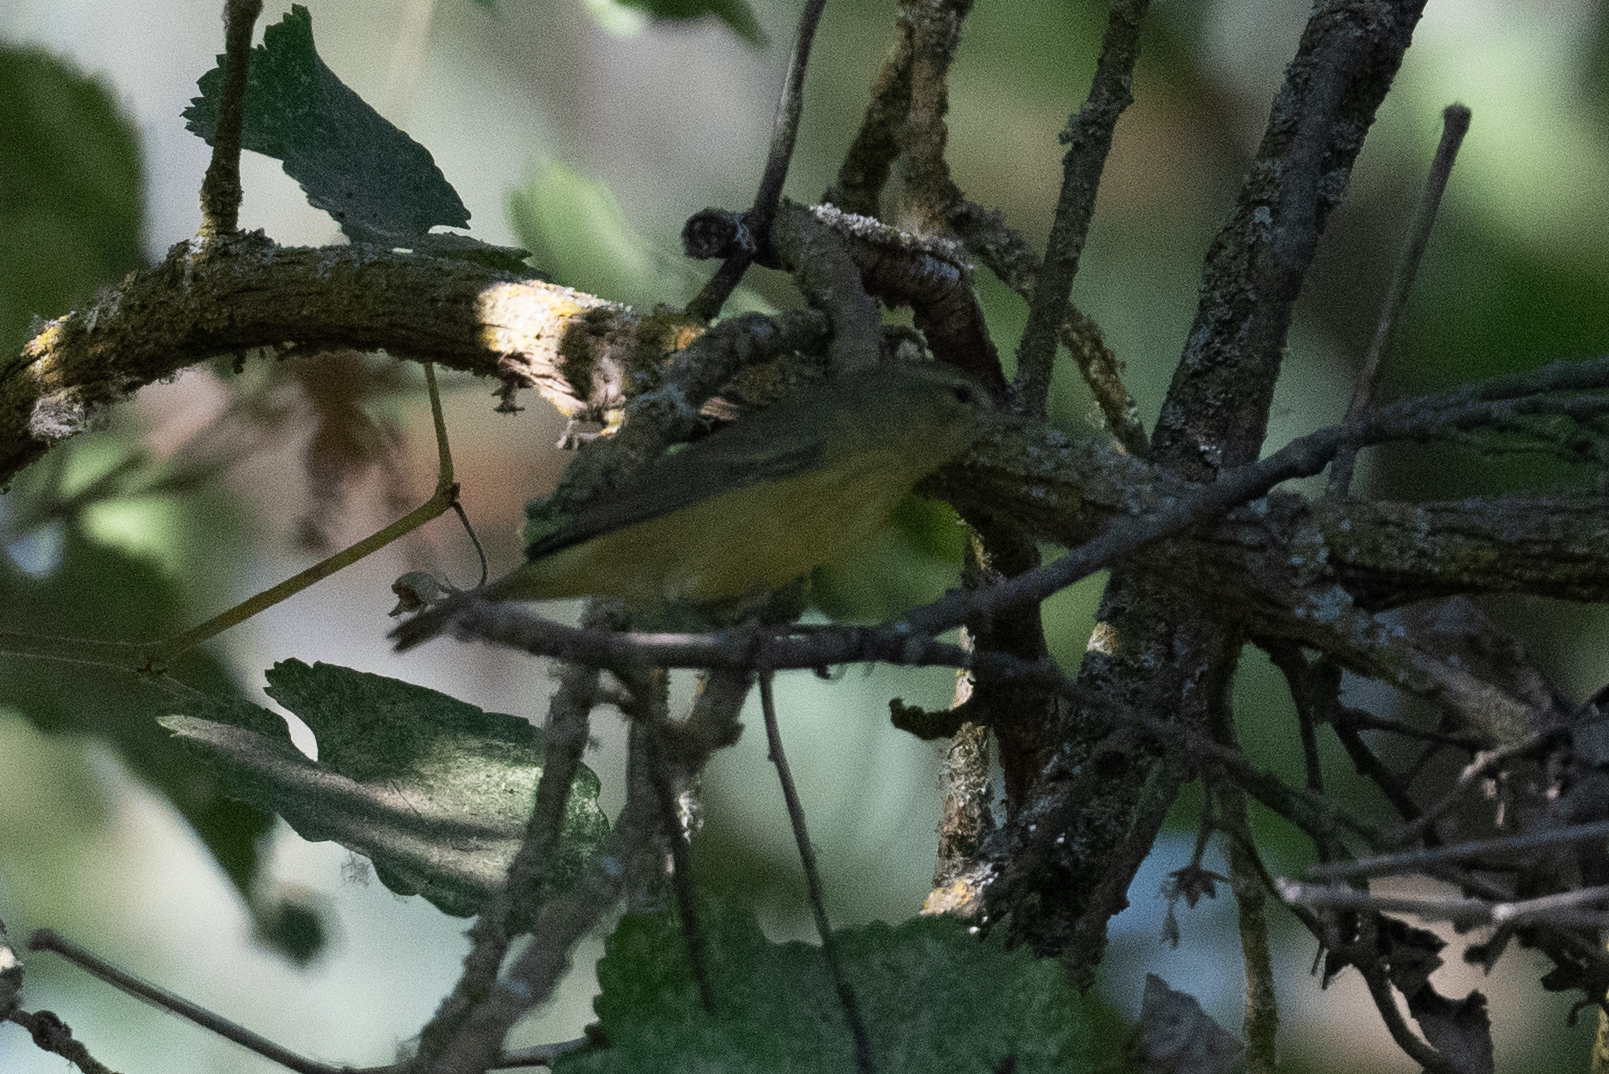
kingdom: Animalia
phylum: Chordata
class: Aves
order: Passeriformes
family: Parulidae
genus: Leiothlypis
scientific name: Leiothlypis celata
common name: Orange-crowned warbler
